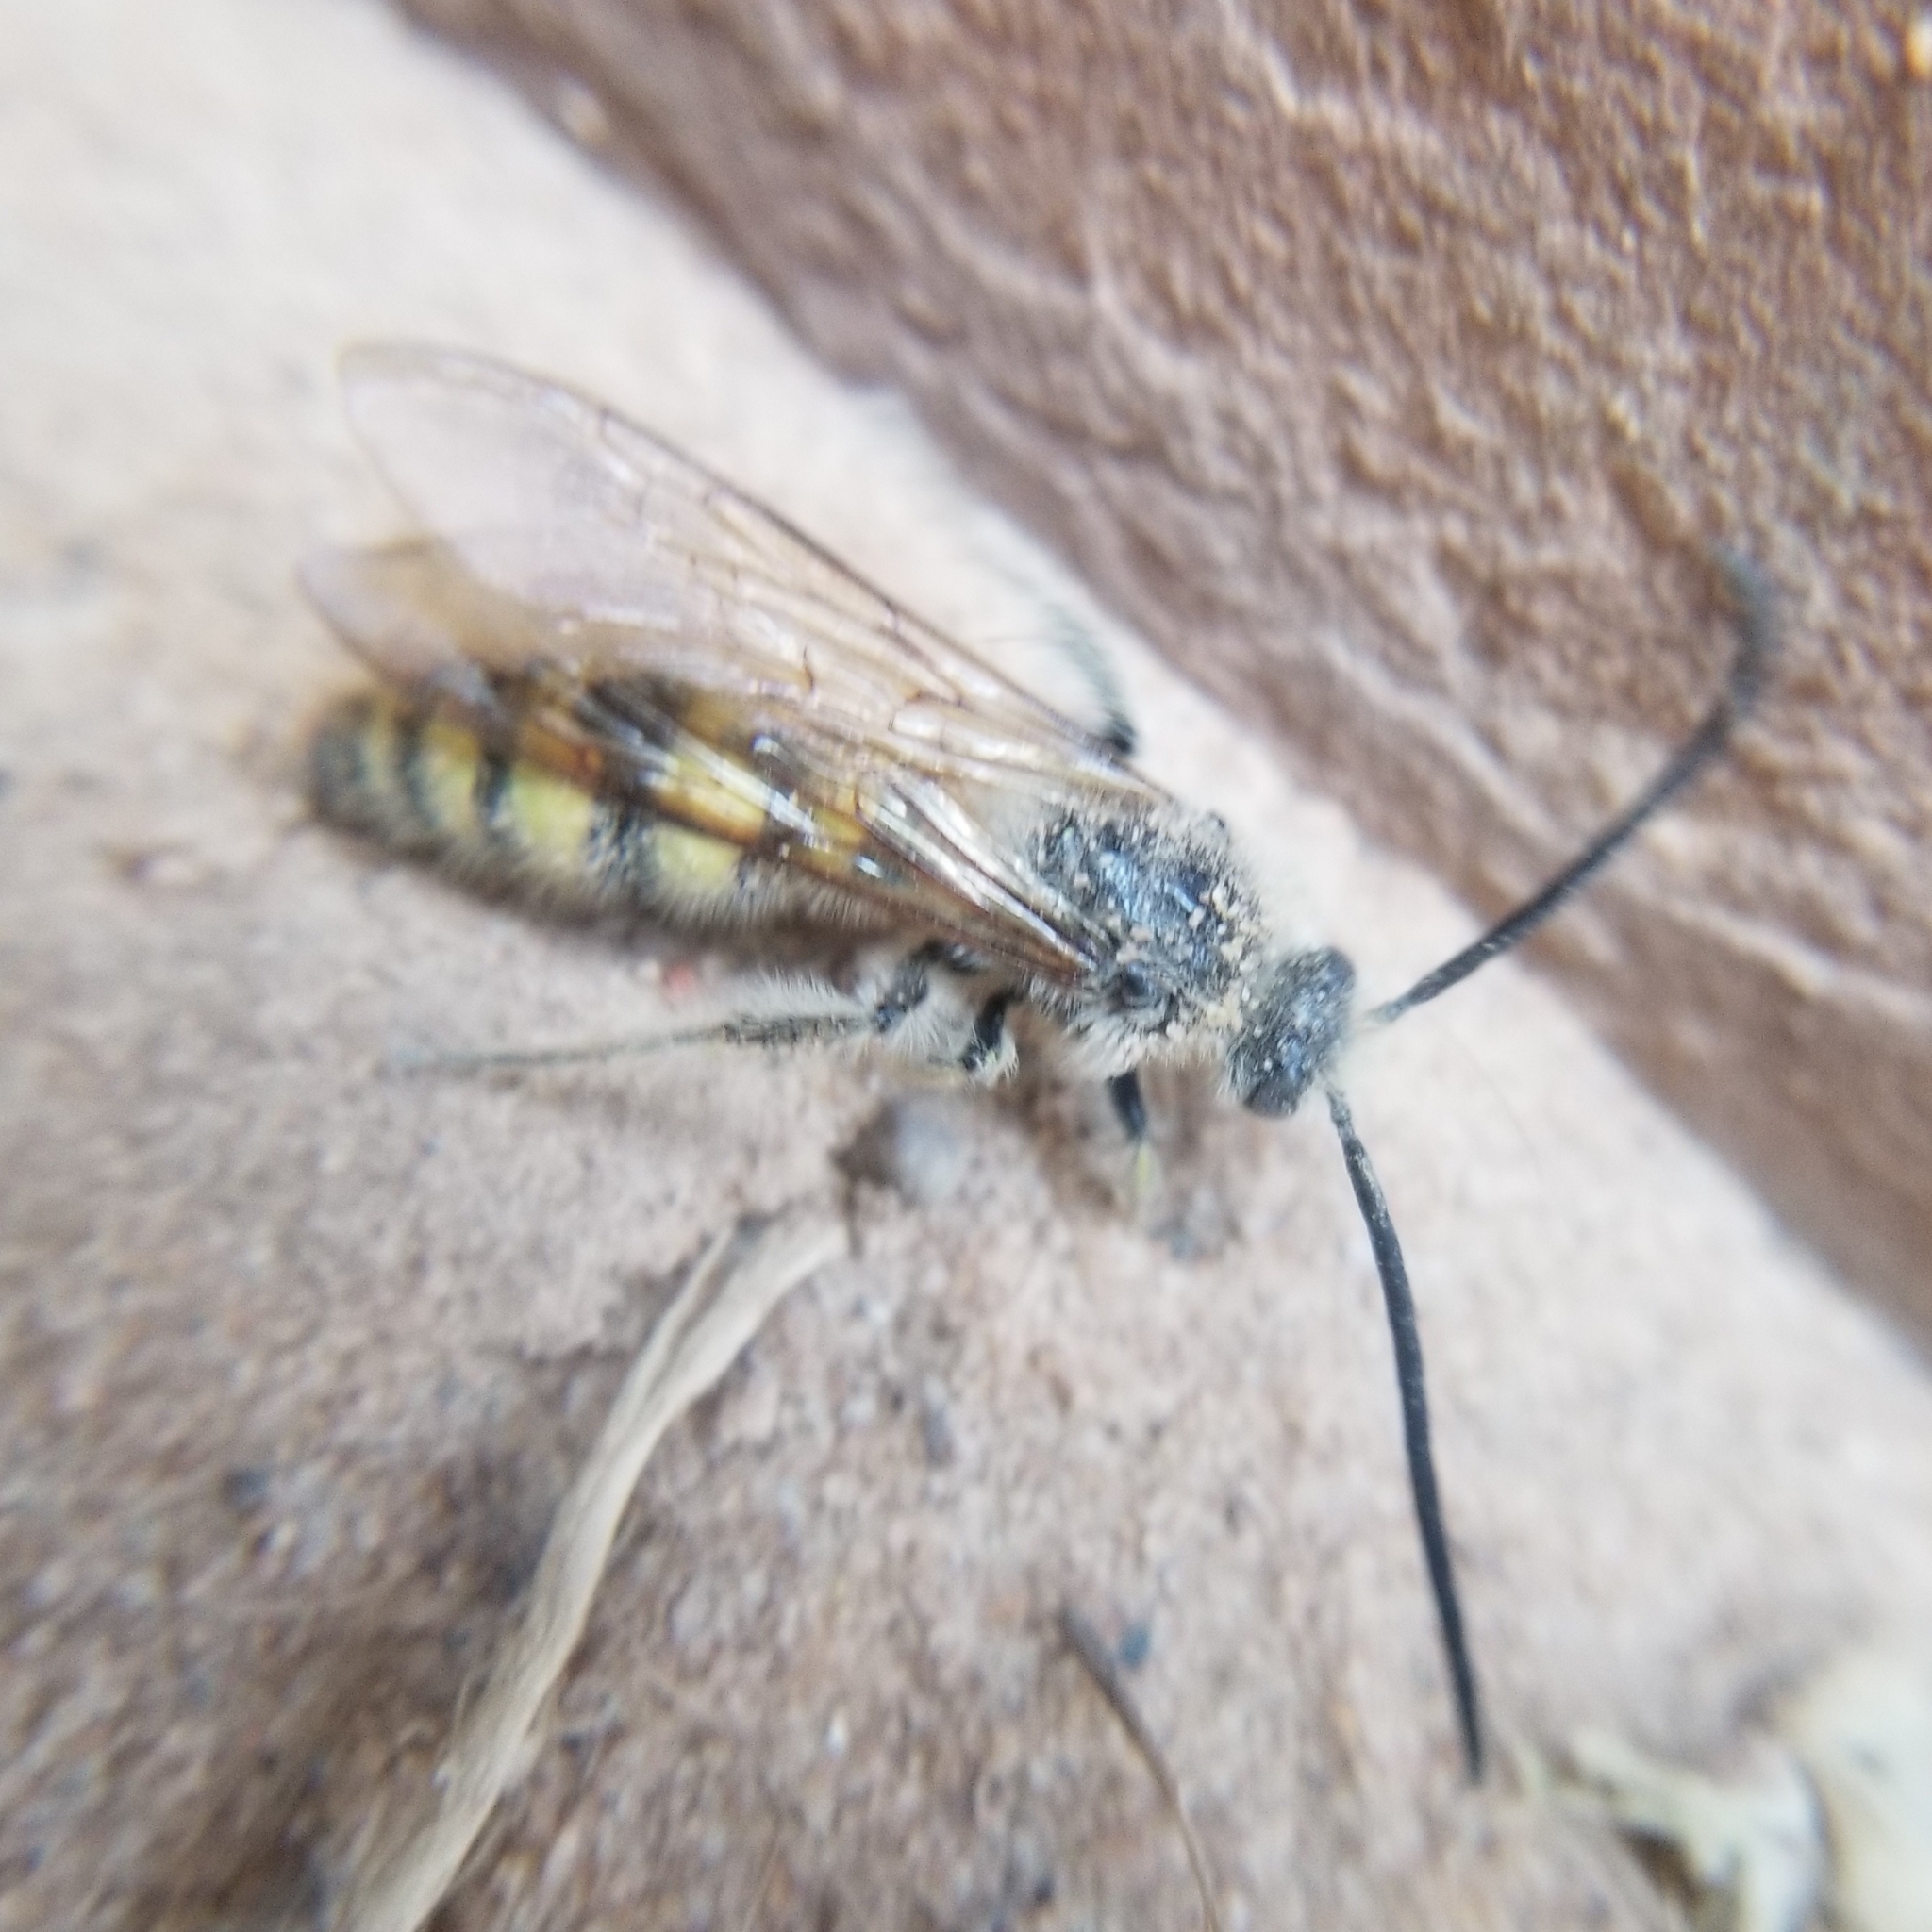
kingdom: Animalia
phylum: Arthropoda
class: Insecta
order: Hymenoptera
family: Scoliidae
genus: Dielis
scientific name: Dielis
